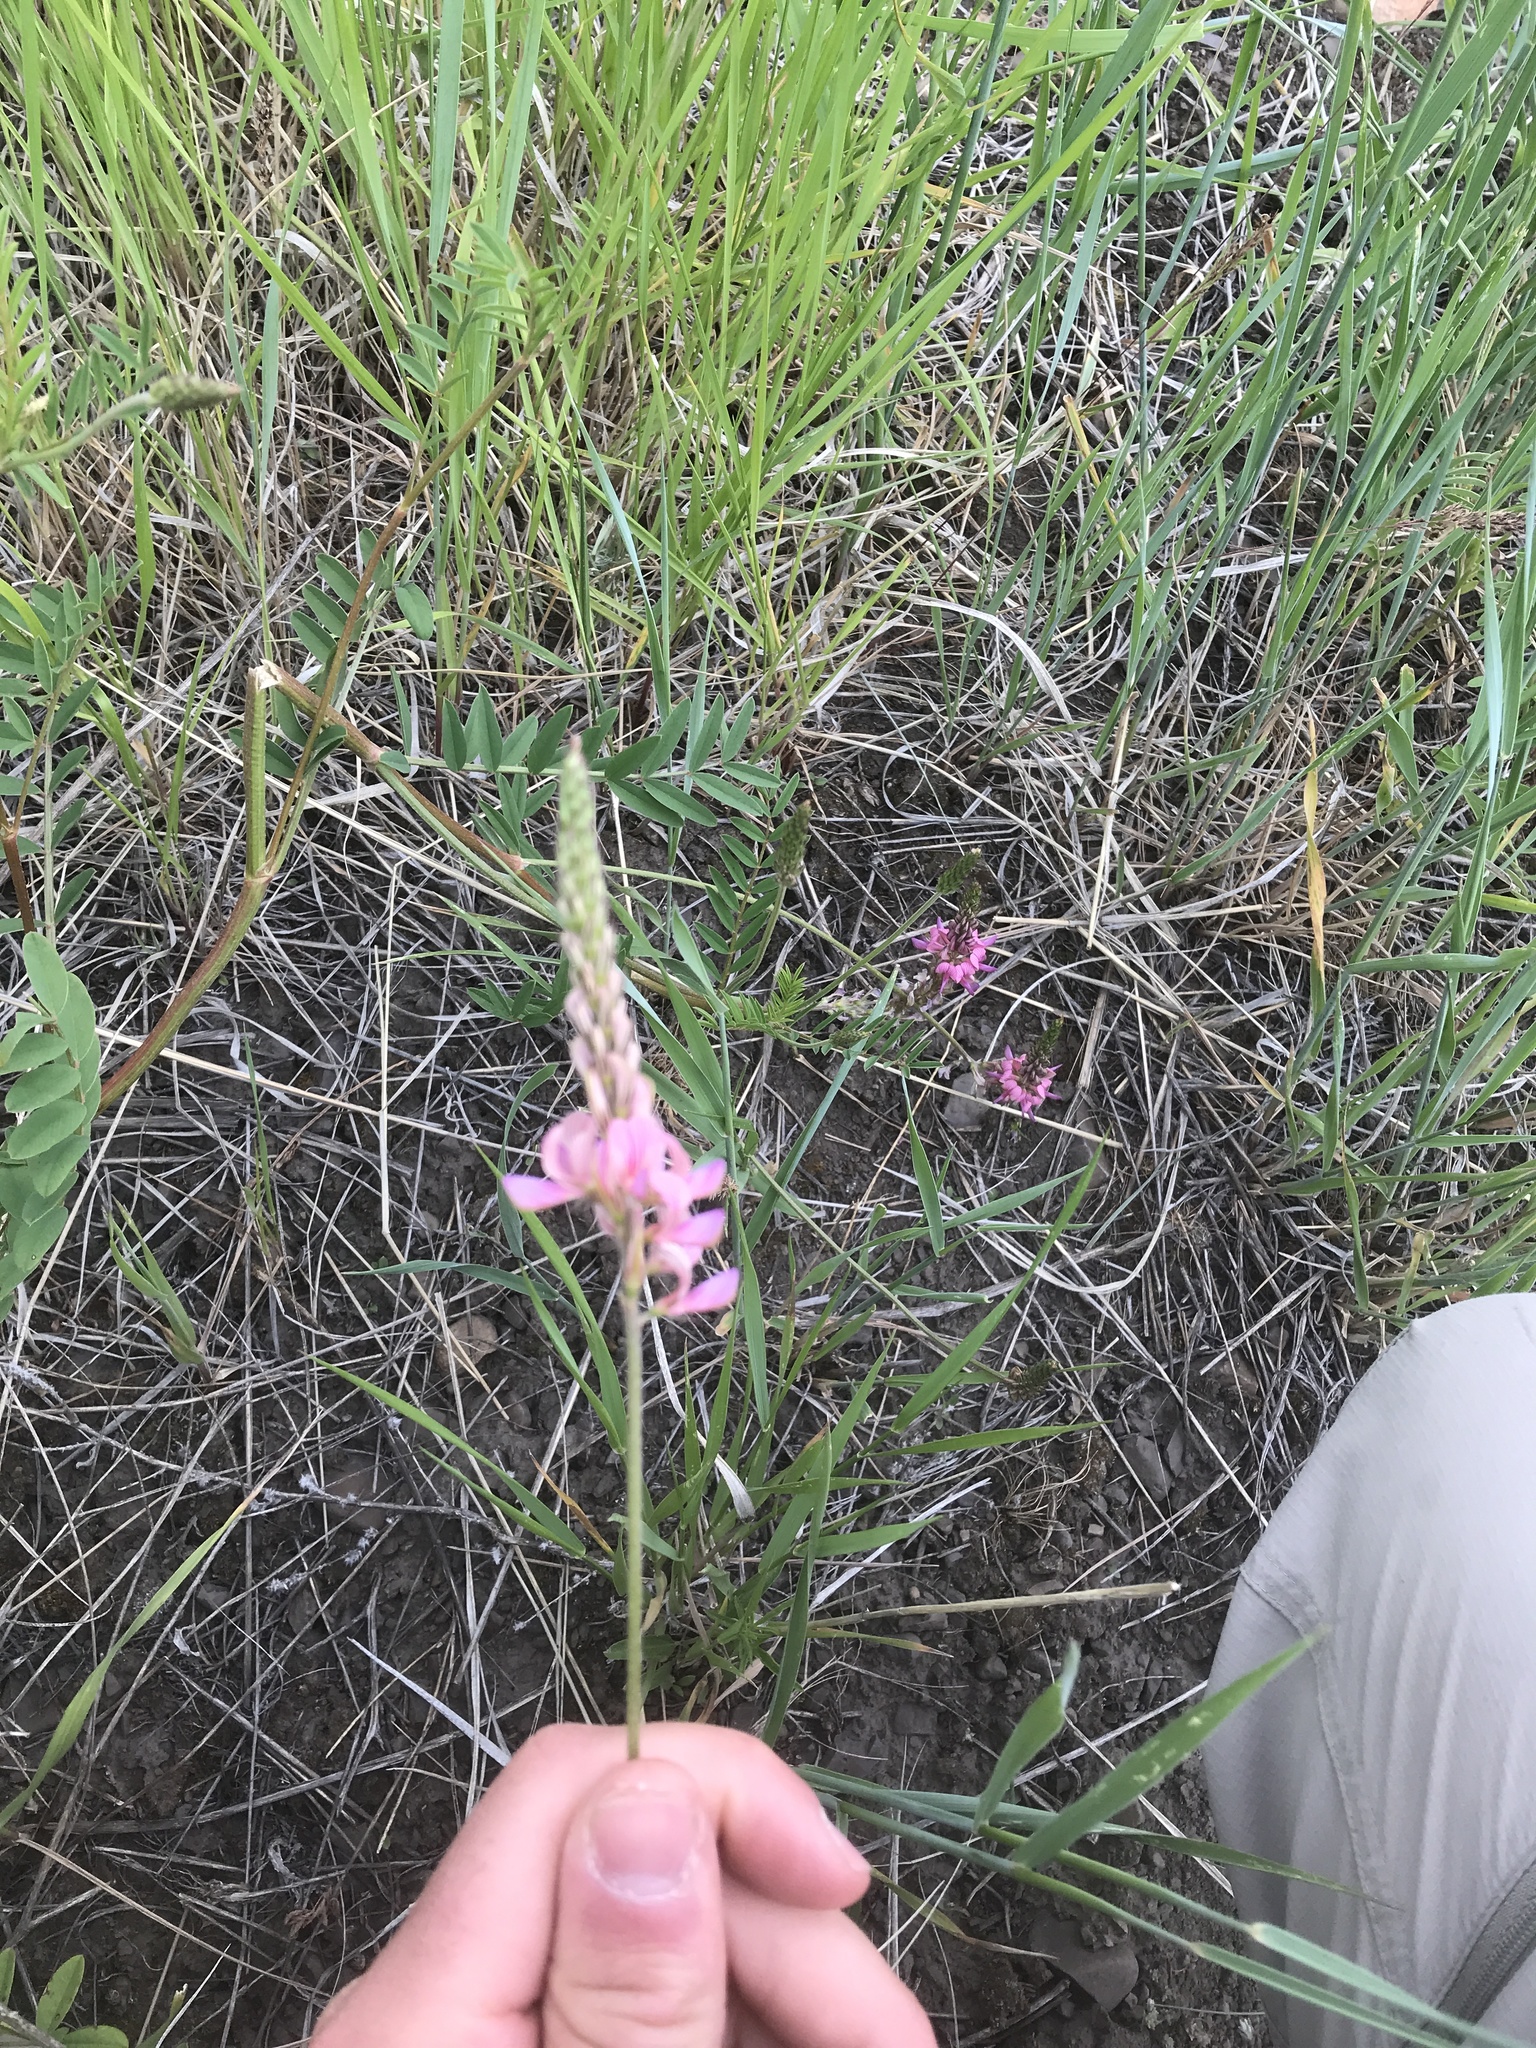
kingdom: Plantae
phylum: Tracheophyta
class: Magnoliopsida
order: Fabales
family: Fabaceae
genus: Onobrychis
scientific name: Onobrychis viciifolia
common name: Sainfoin
